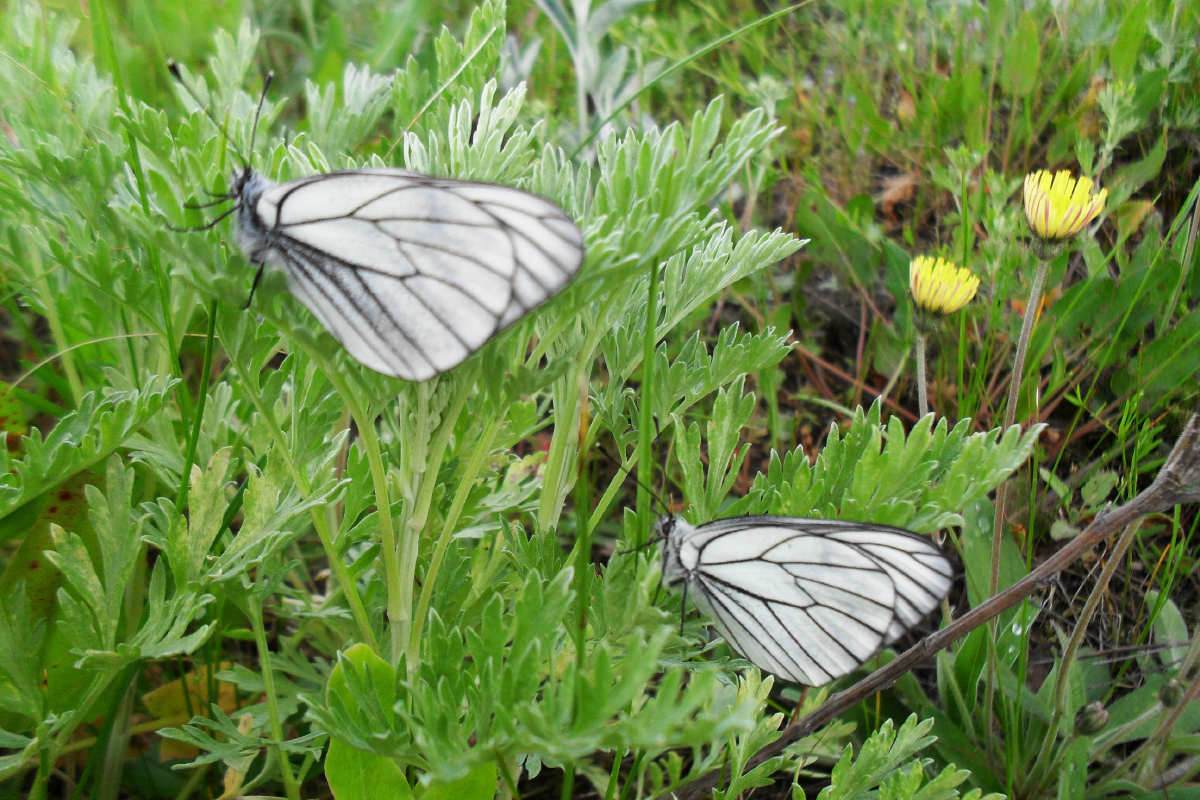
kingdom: Animalia
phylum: Arthropoda
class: Insecta
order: Lepidoptera
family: Pieridae
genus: Aporia
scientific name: Aporia crataegi
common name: Black-veined white
